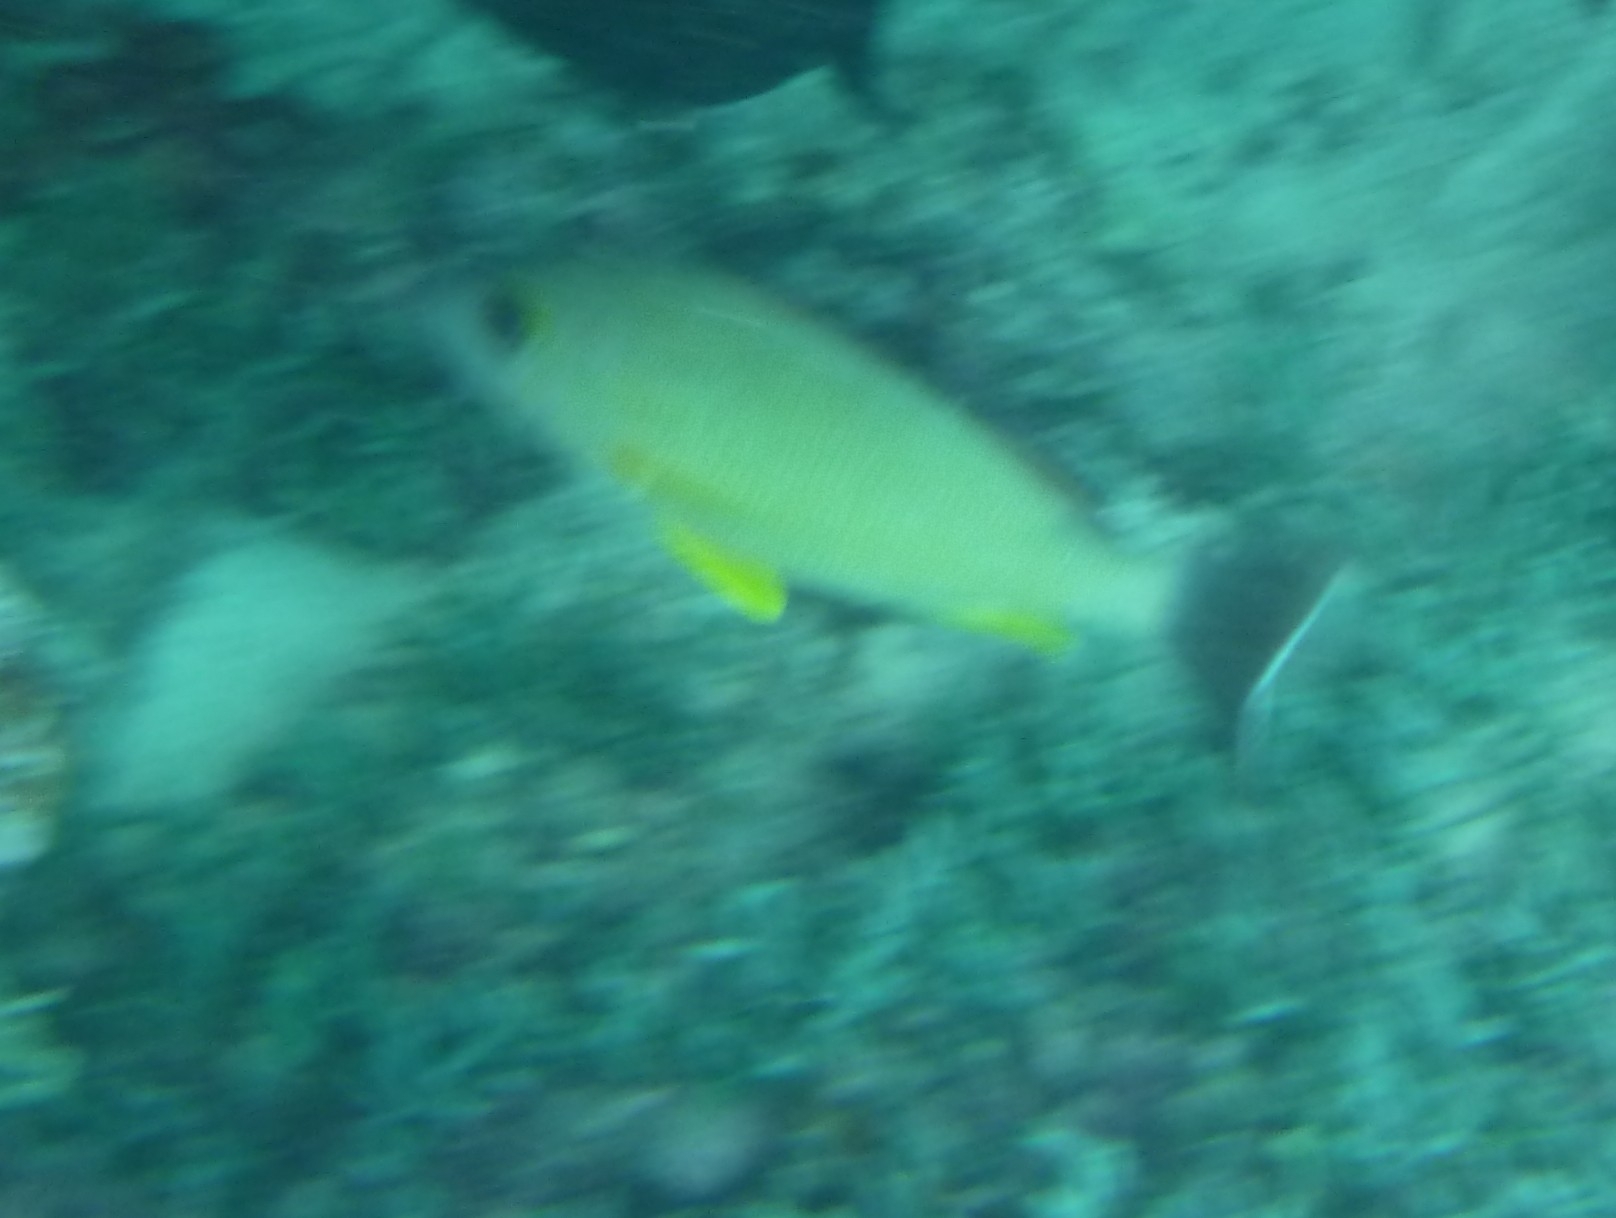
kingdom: Animalia
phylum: Chordata
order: Perciformes
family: Lutjanidae
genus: Lutjanus
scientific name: Lutjanus fulvus
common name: Blacktail snapper
